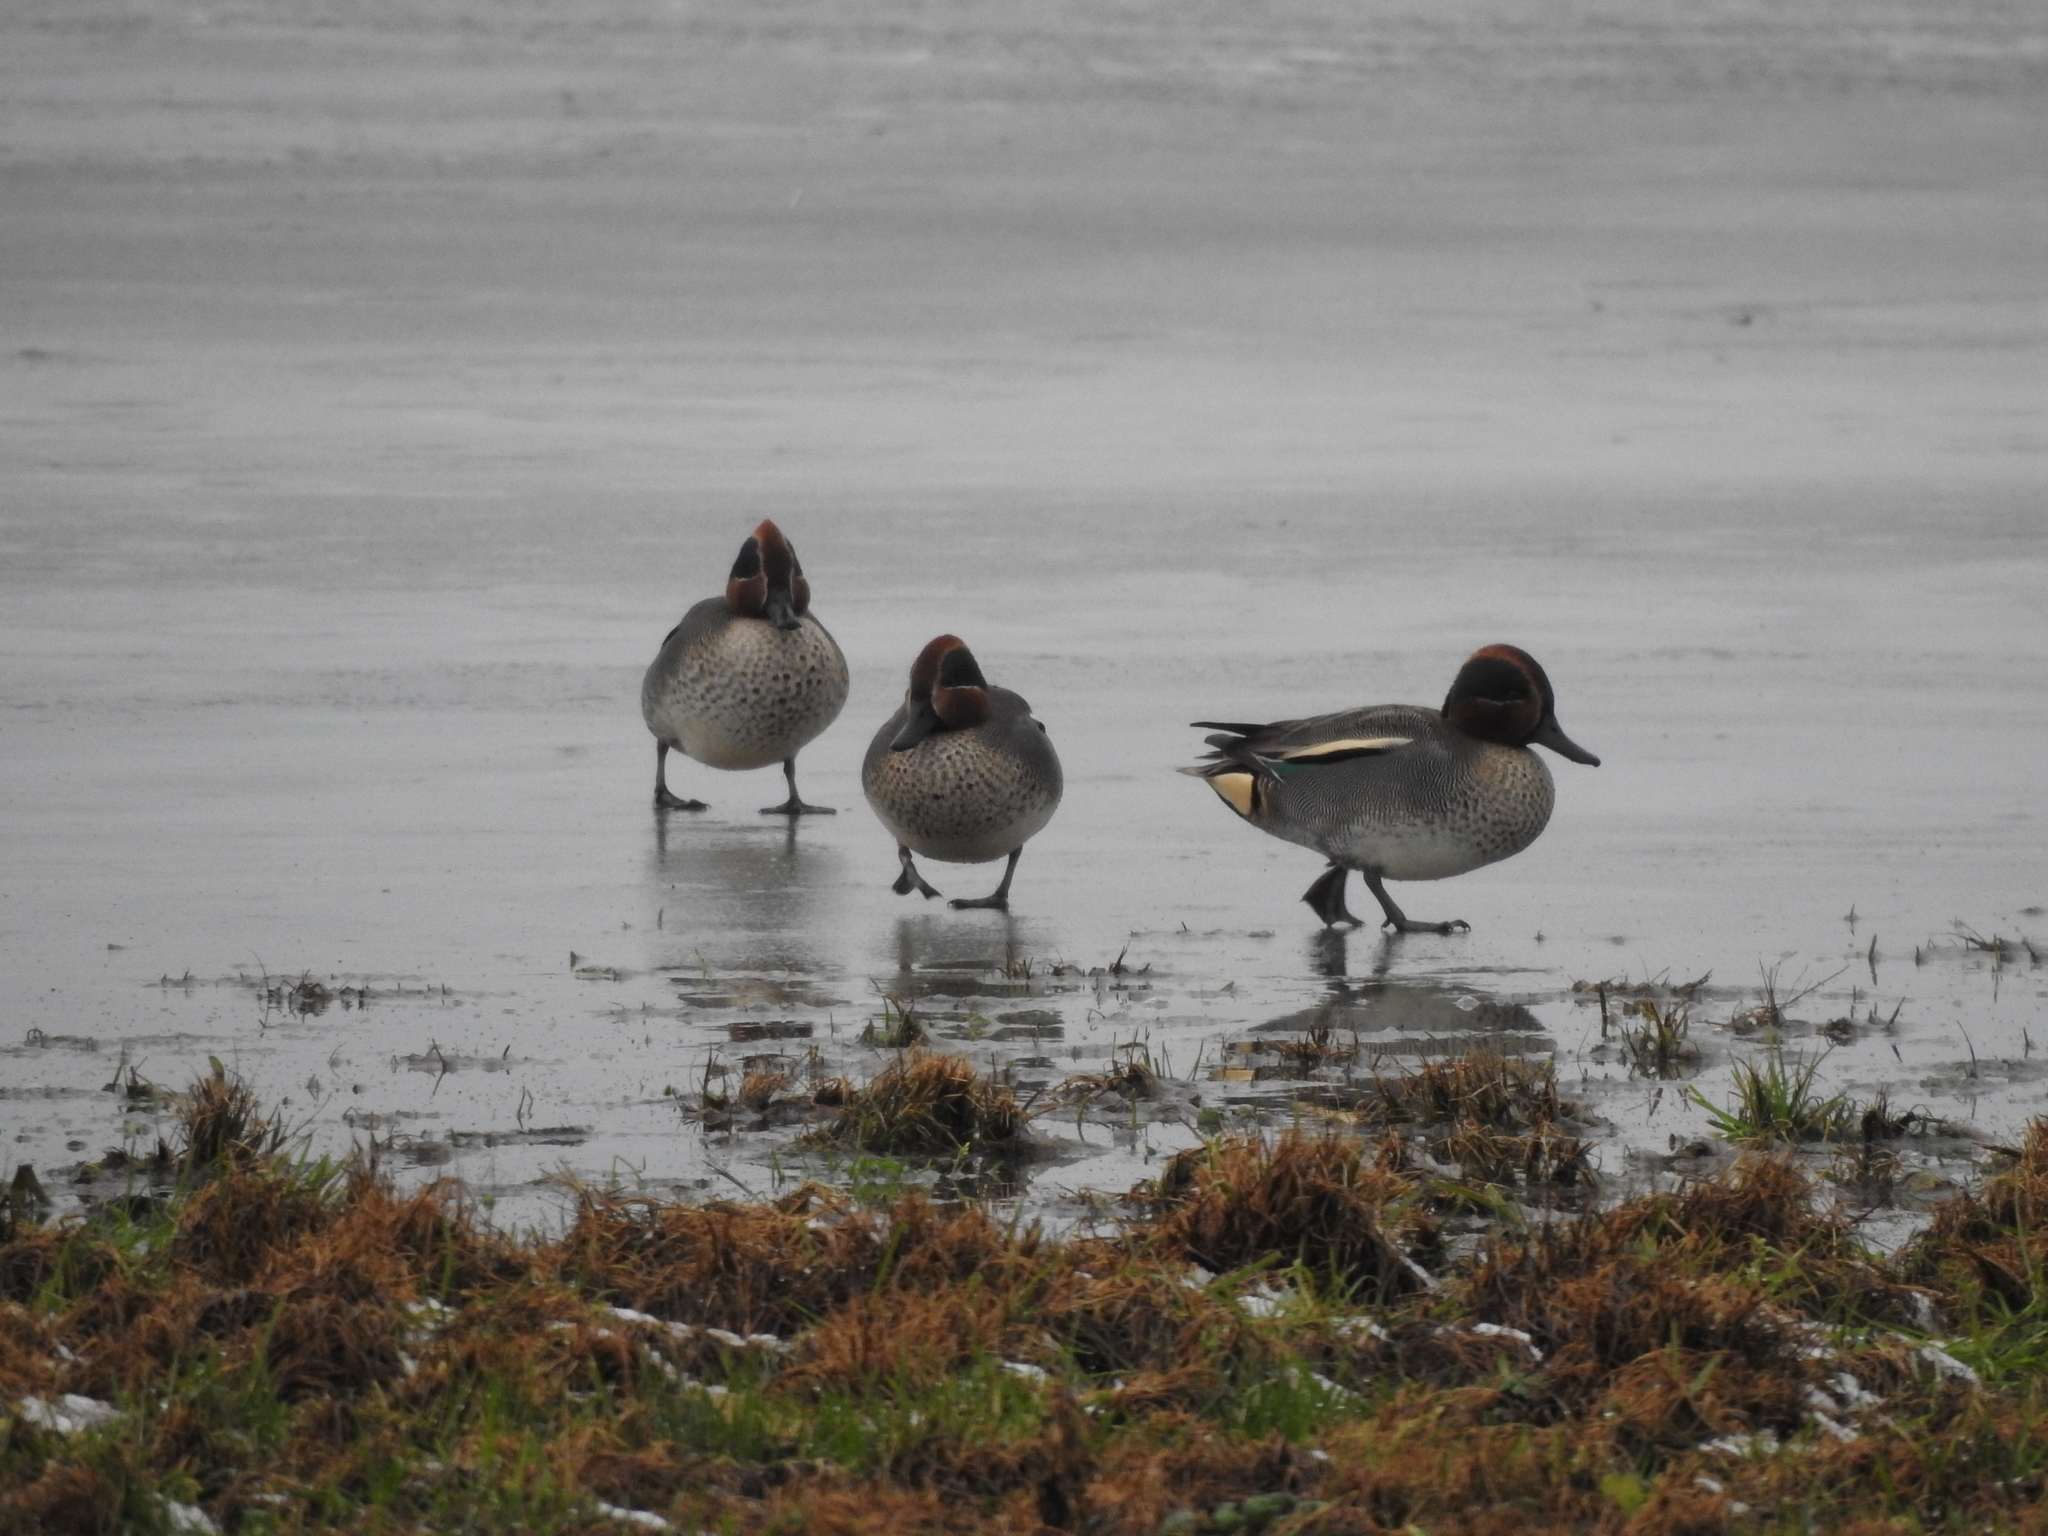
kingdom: Animalia
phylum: Chordata
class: Aves
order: Anseriformes
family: Anatidae
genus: Anas
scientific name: Anas crecca
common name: Eurasian teal
